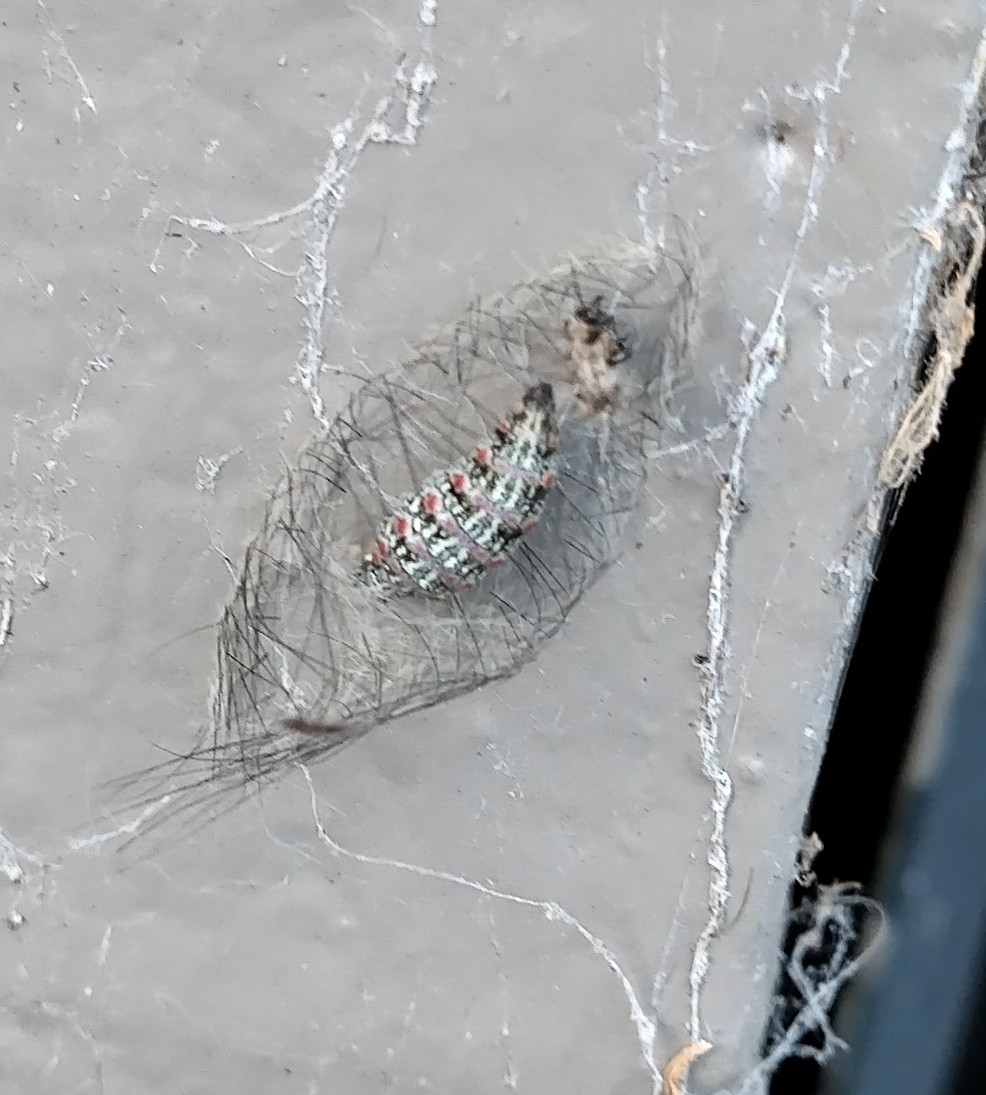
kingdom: Animalia
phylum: Arthropoda
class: Insecta
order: Lepidoptera
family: Erebidae
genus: Anestia
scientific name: Anestia
